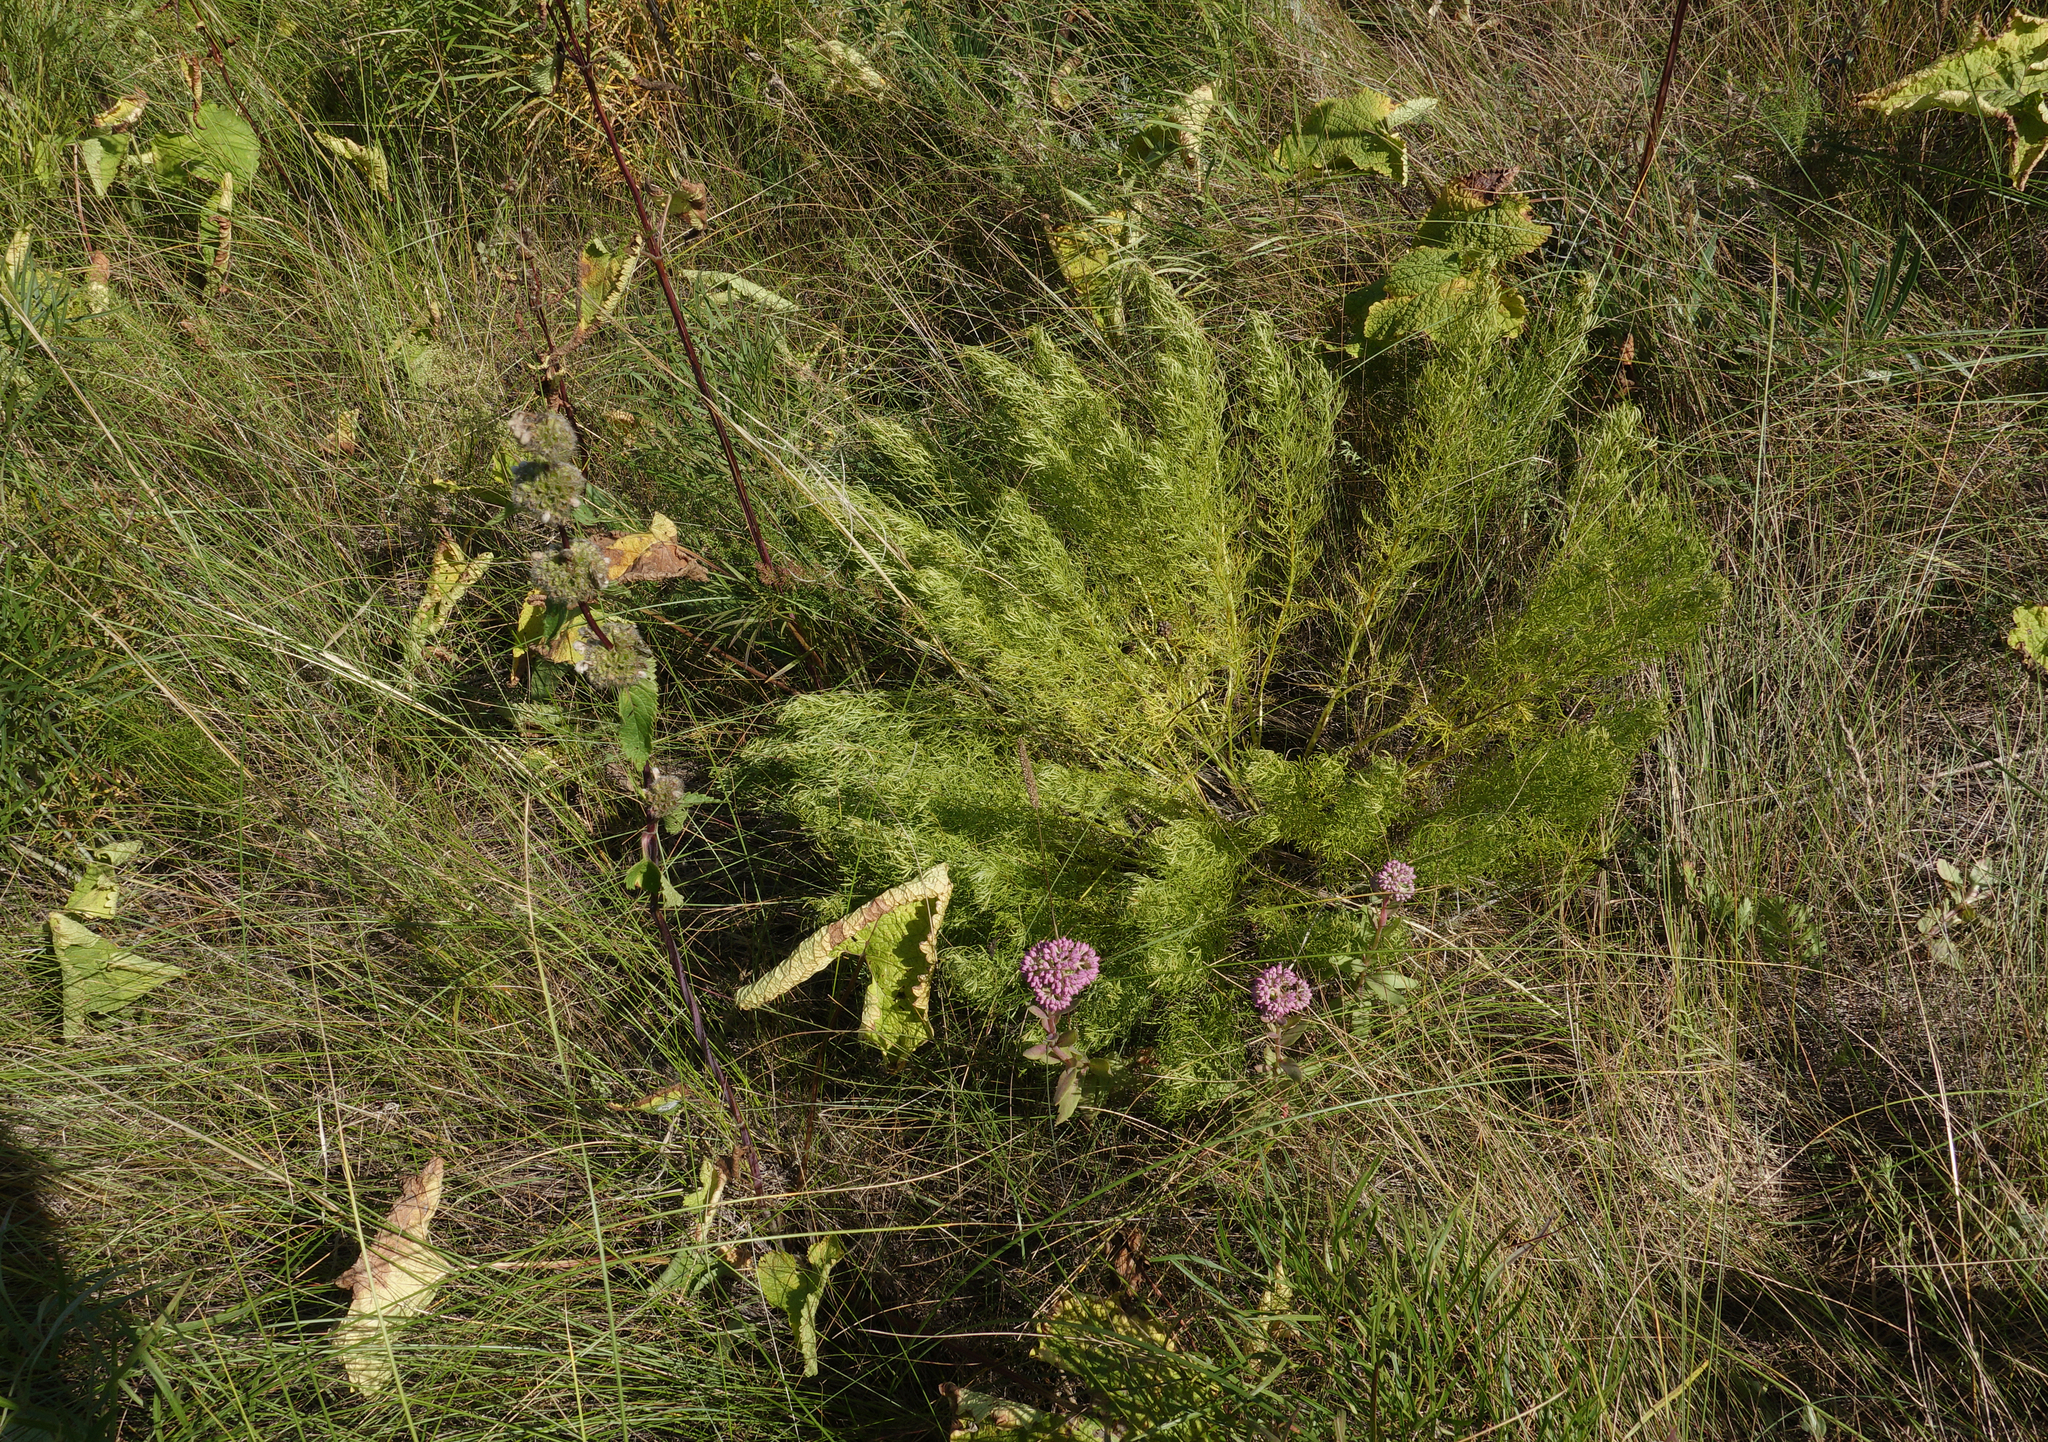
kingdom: Plantae
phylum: Tracheophyta
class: Magnoliopsida
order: Ranunculales
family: Ranunculaceae
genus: Adonis
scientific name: Adonis vernalis
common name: Yellow pheasants-eye
